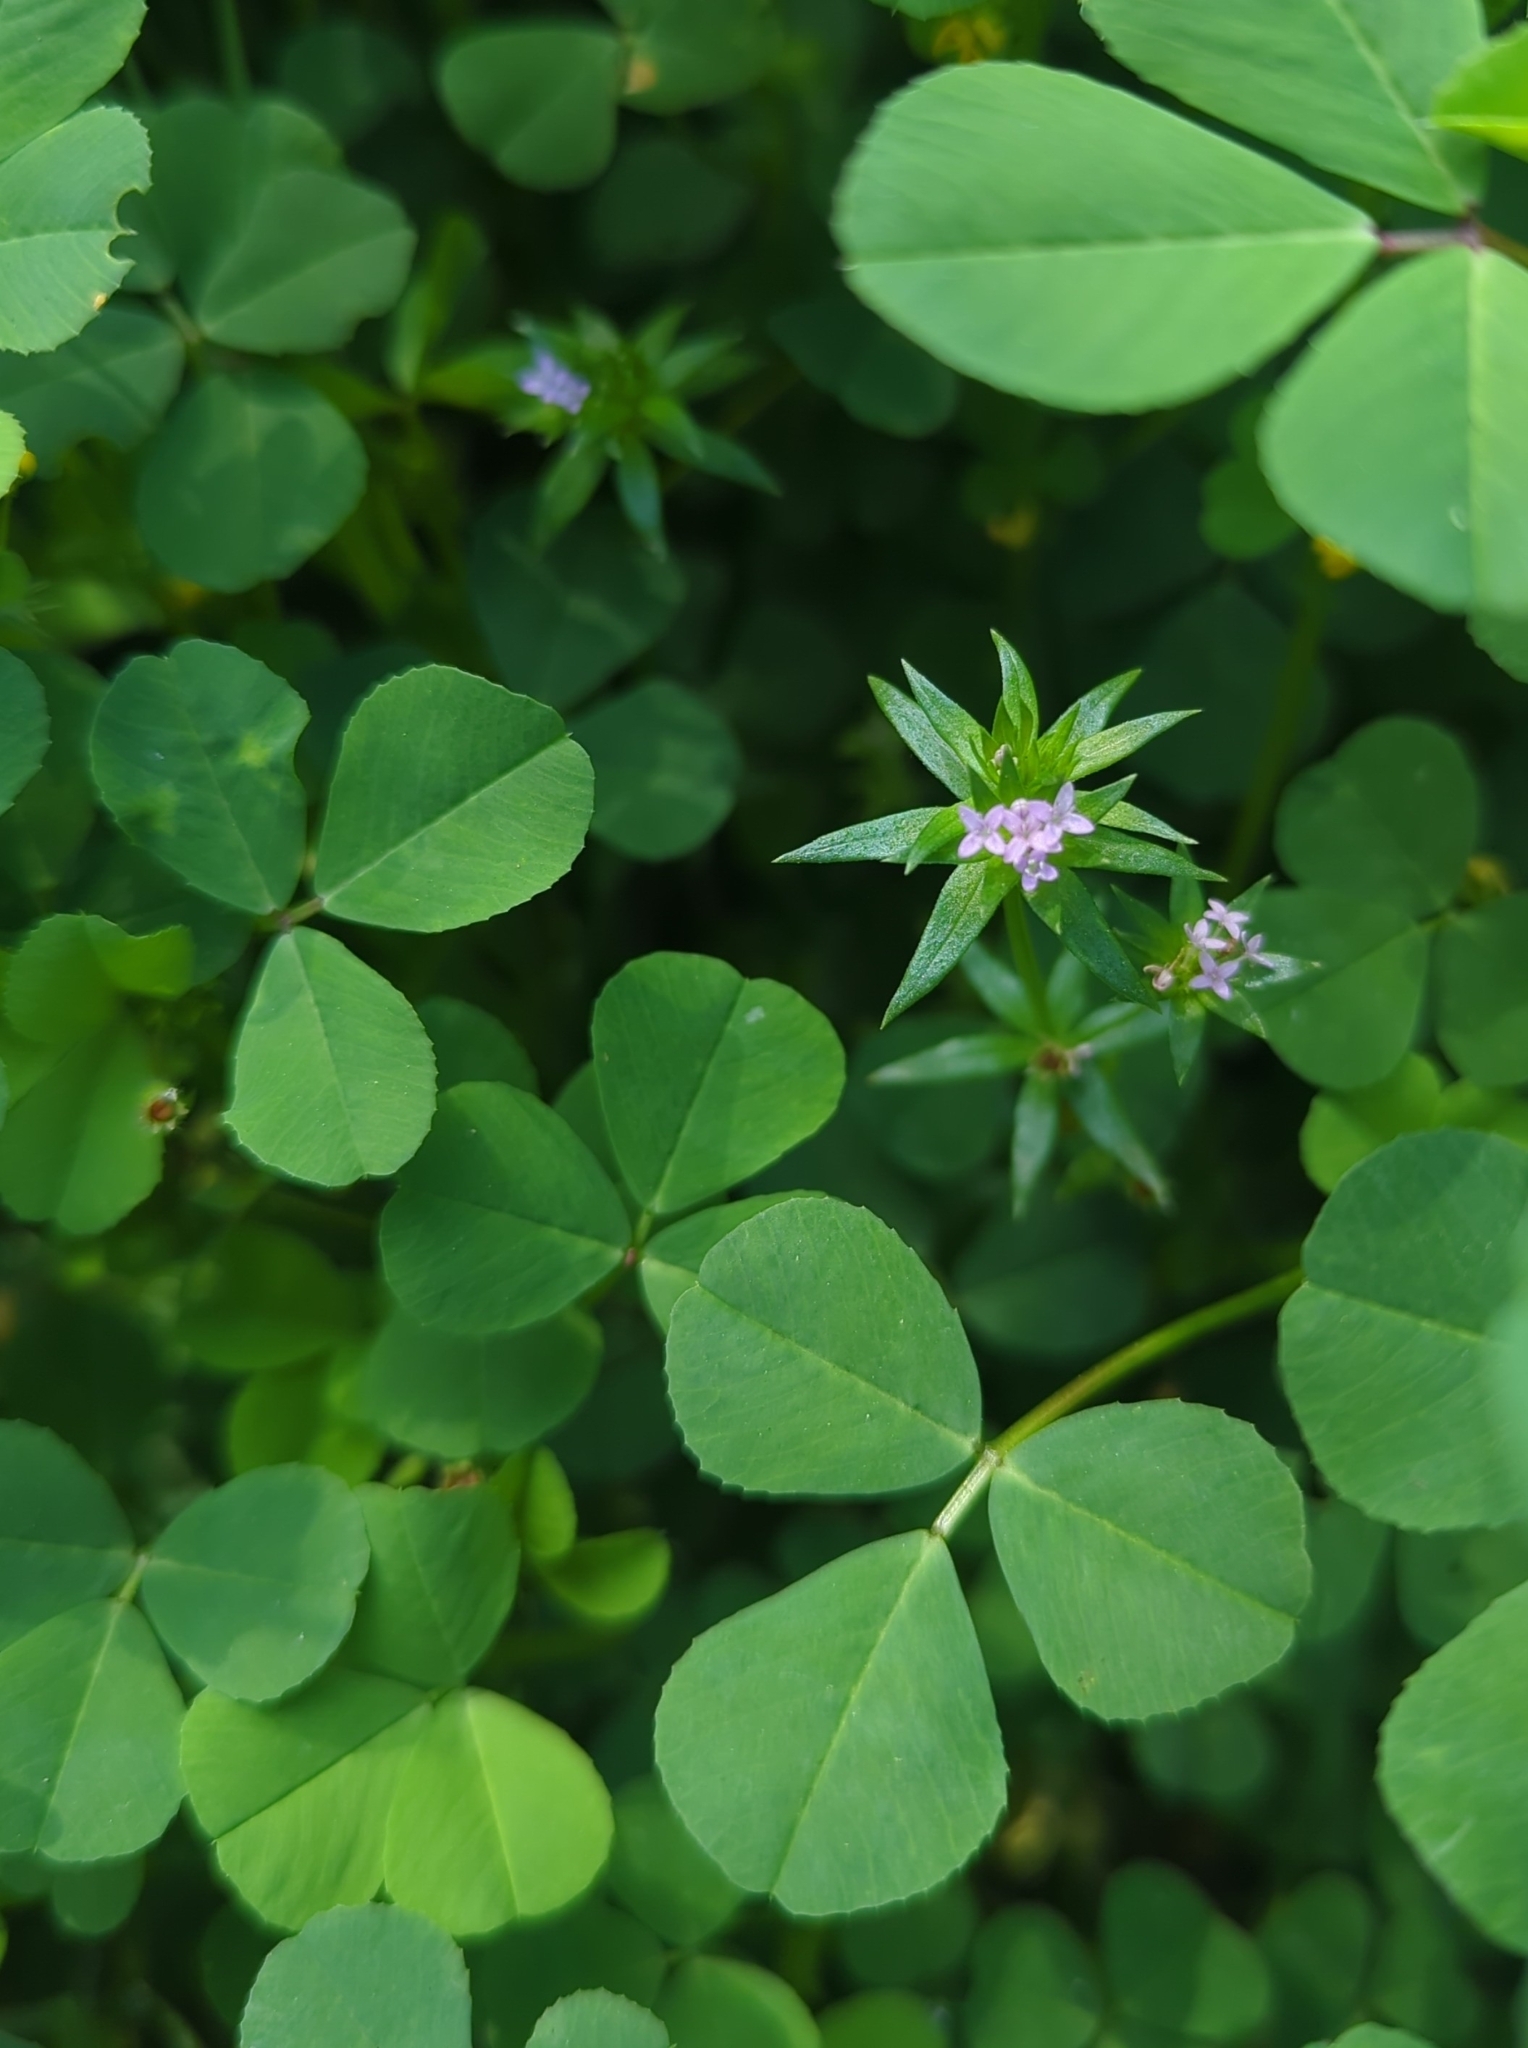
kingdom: Plantae
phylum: Tracheophyta
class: Magnoliopsida
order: Gentianales
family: Rubiaceae
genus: Sherardia
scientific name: Sherardia arvensis
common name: Field madder
